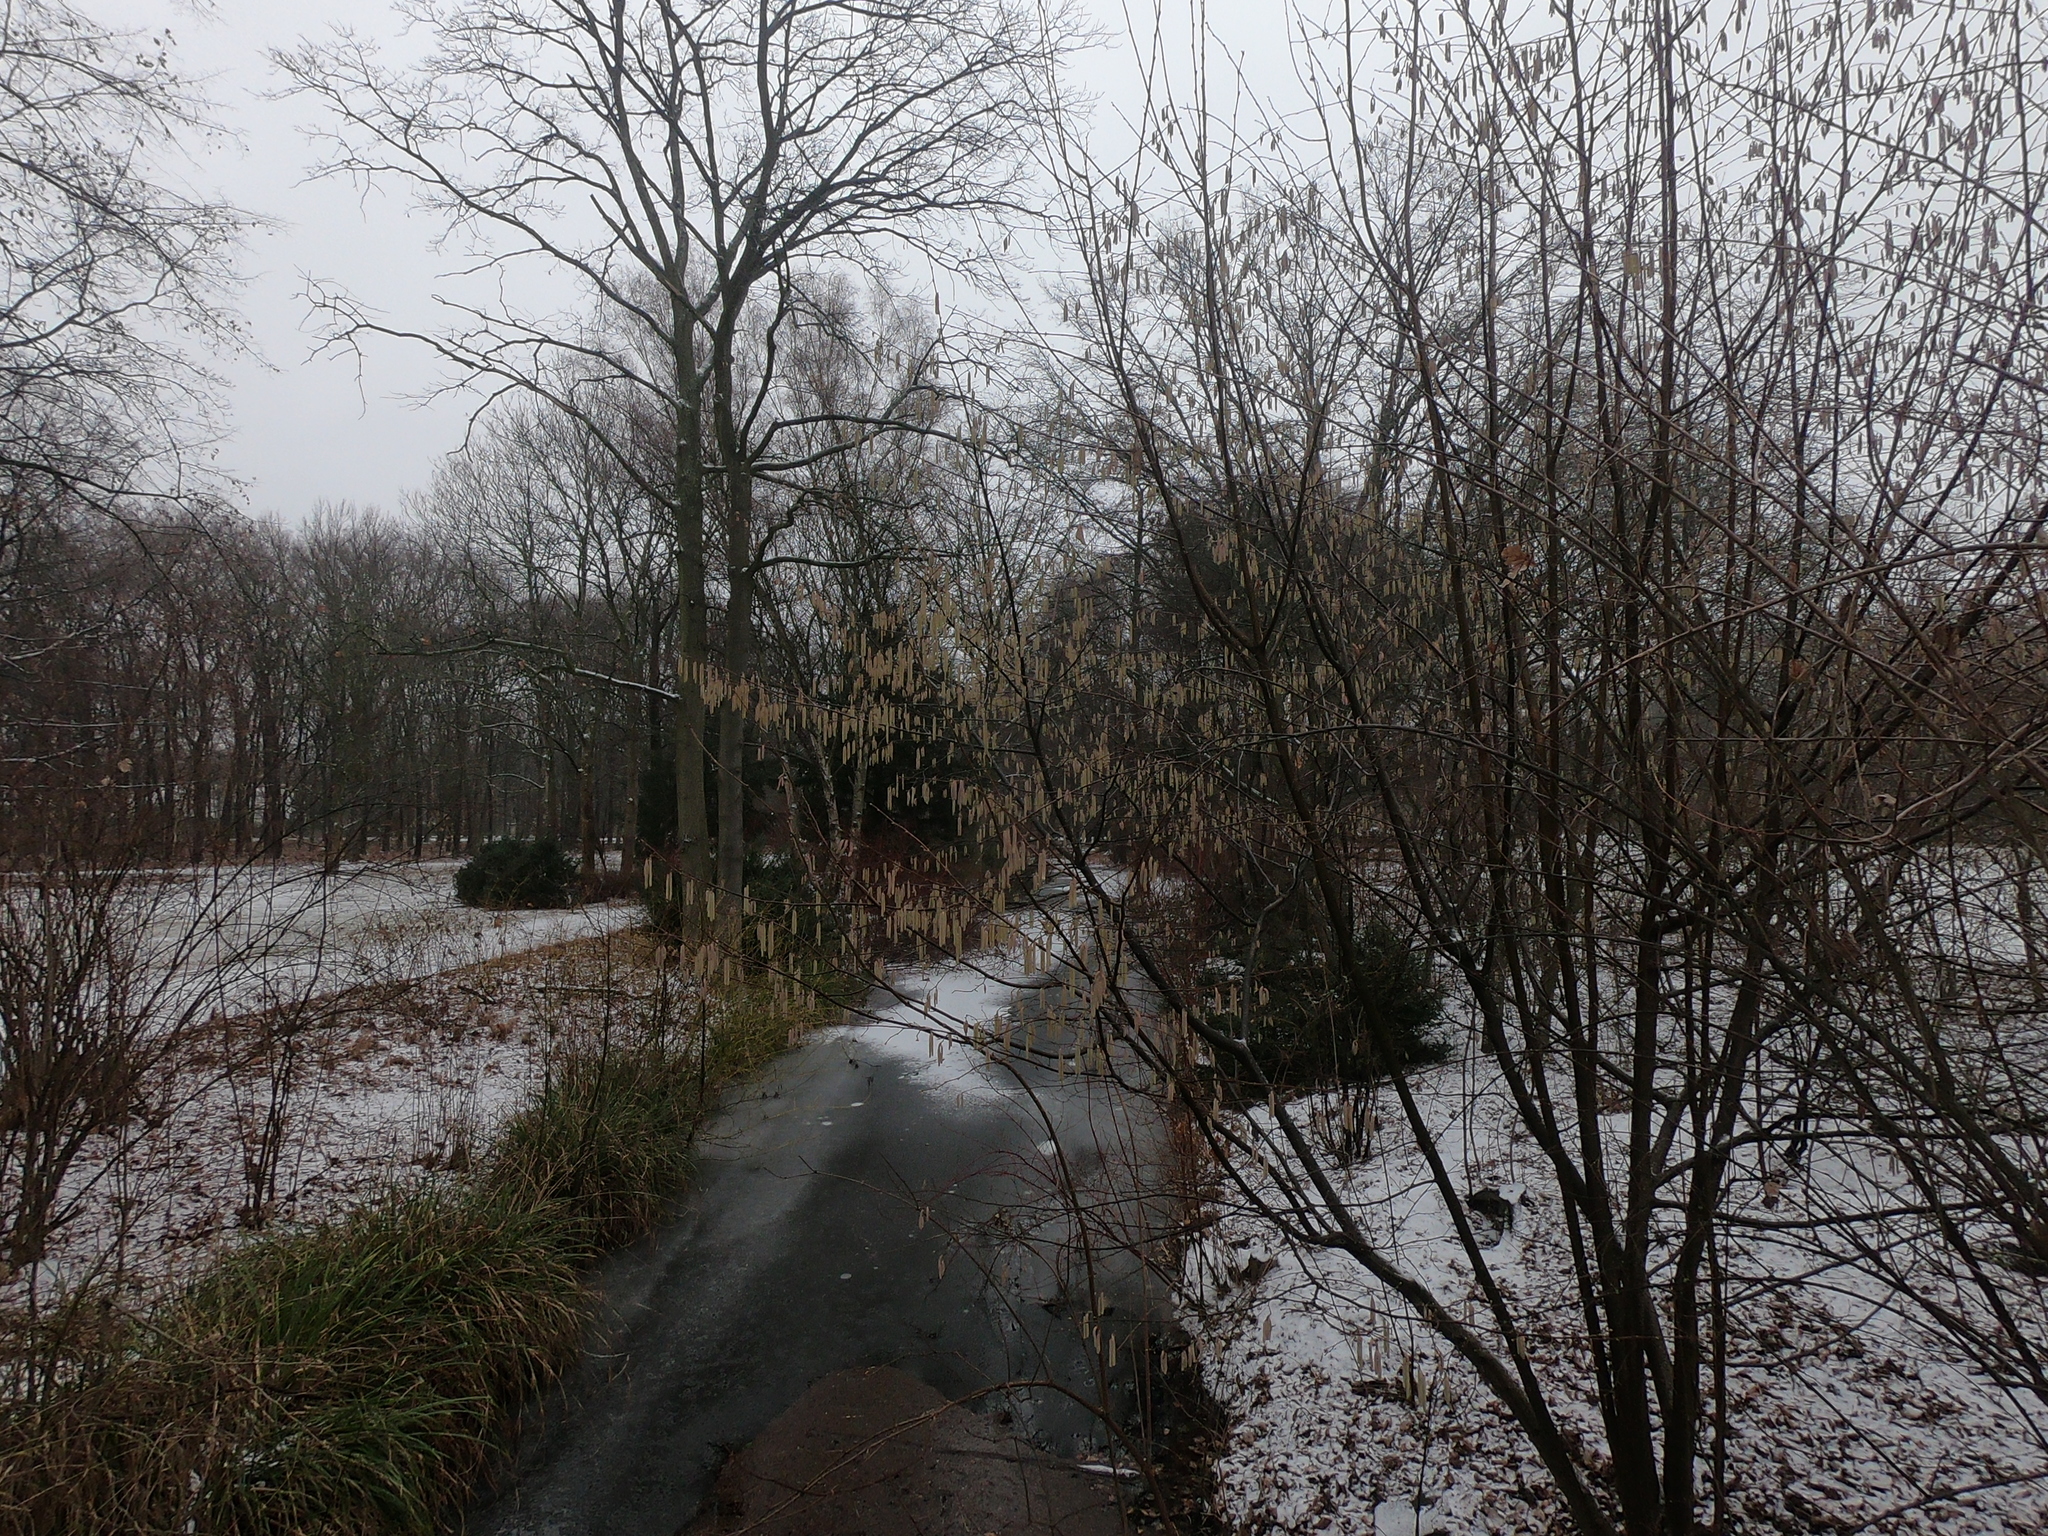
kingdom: Plantae
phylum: Tracheophyta
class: Magnoliopsida
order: Fagales
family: Betulaceae
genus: Corylus
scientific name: Corylus avellana
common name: European hazel
